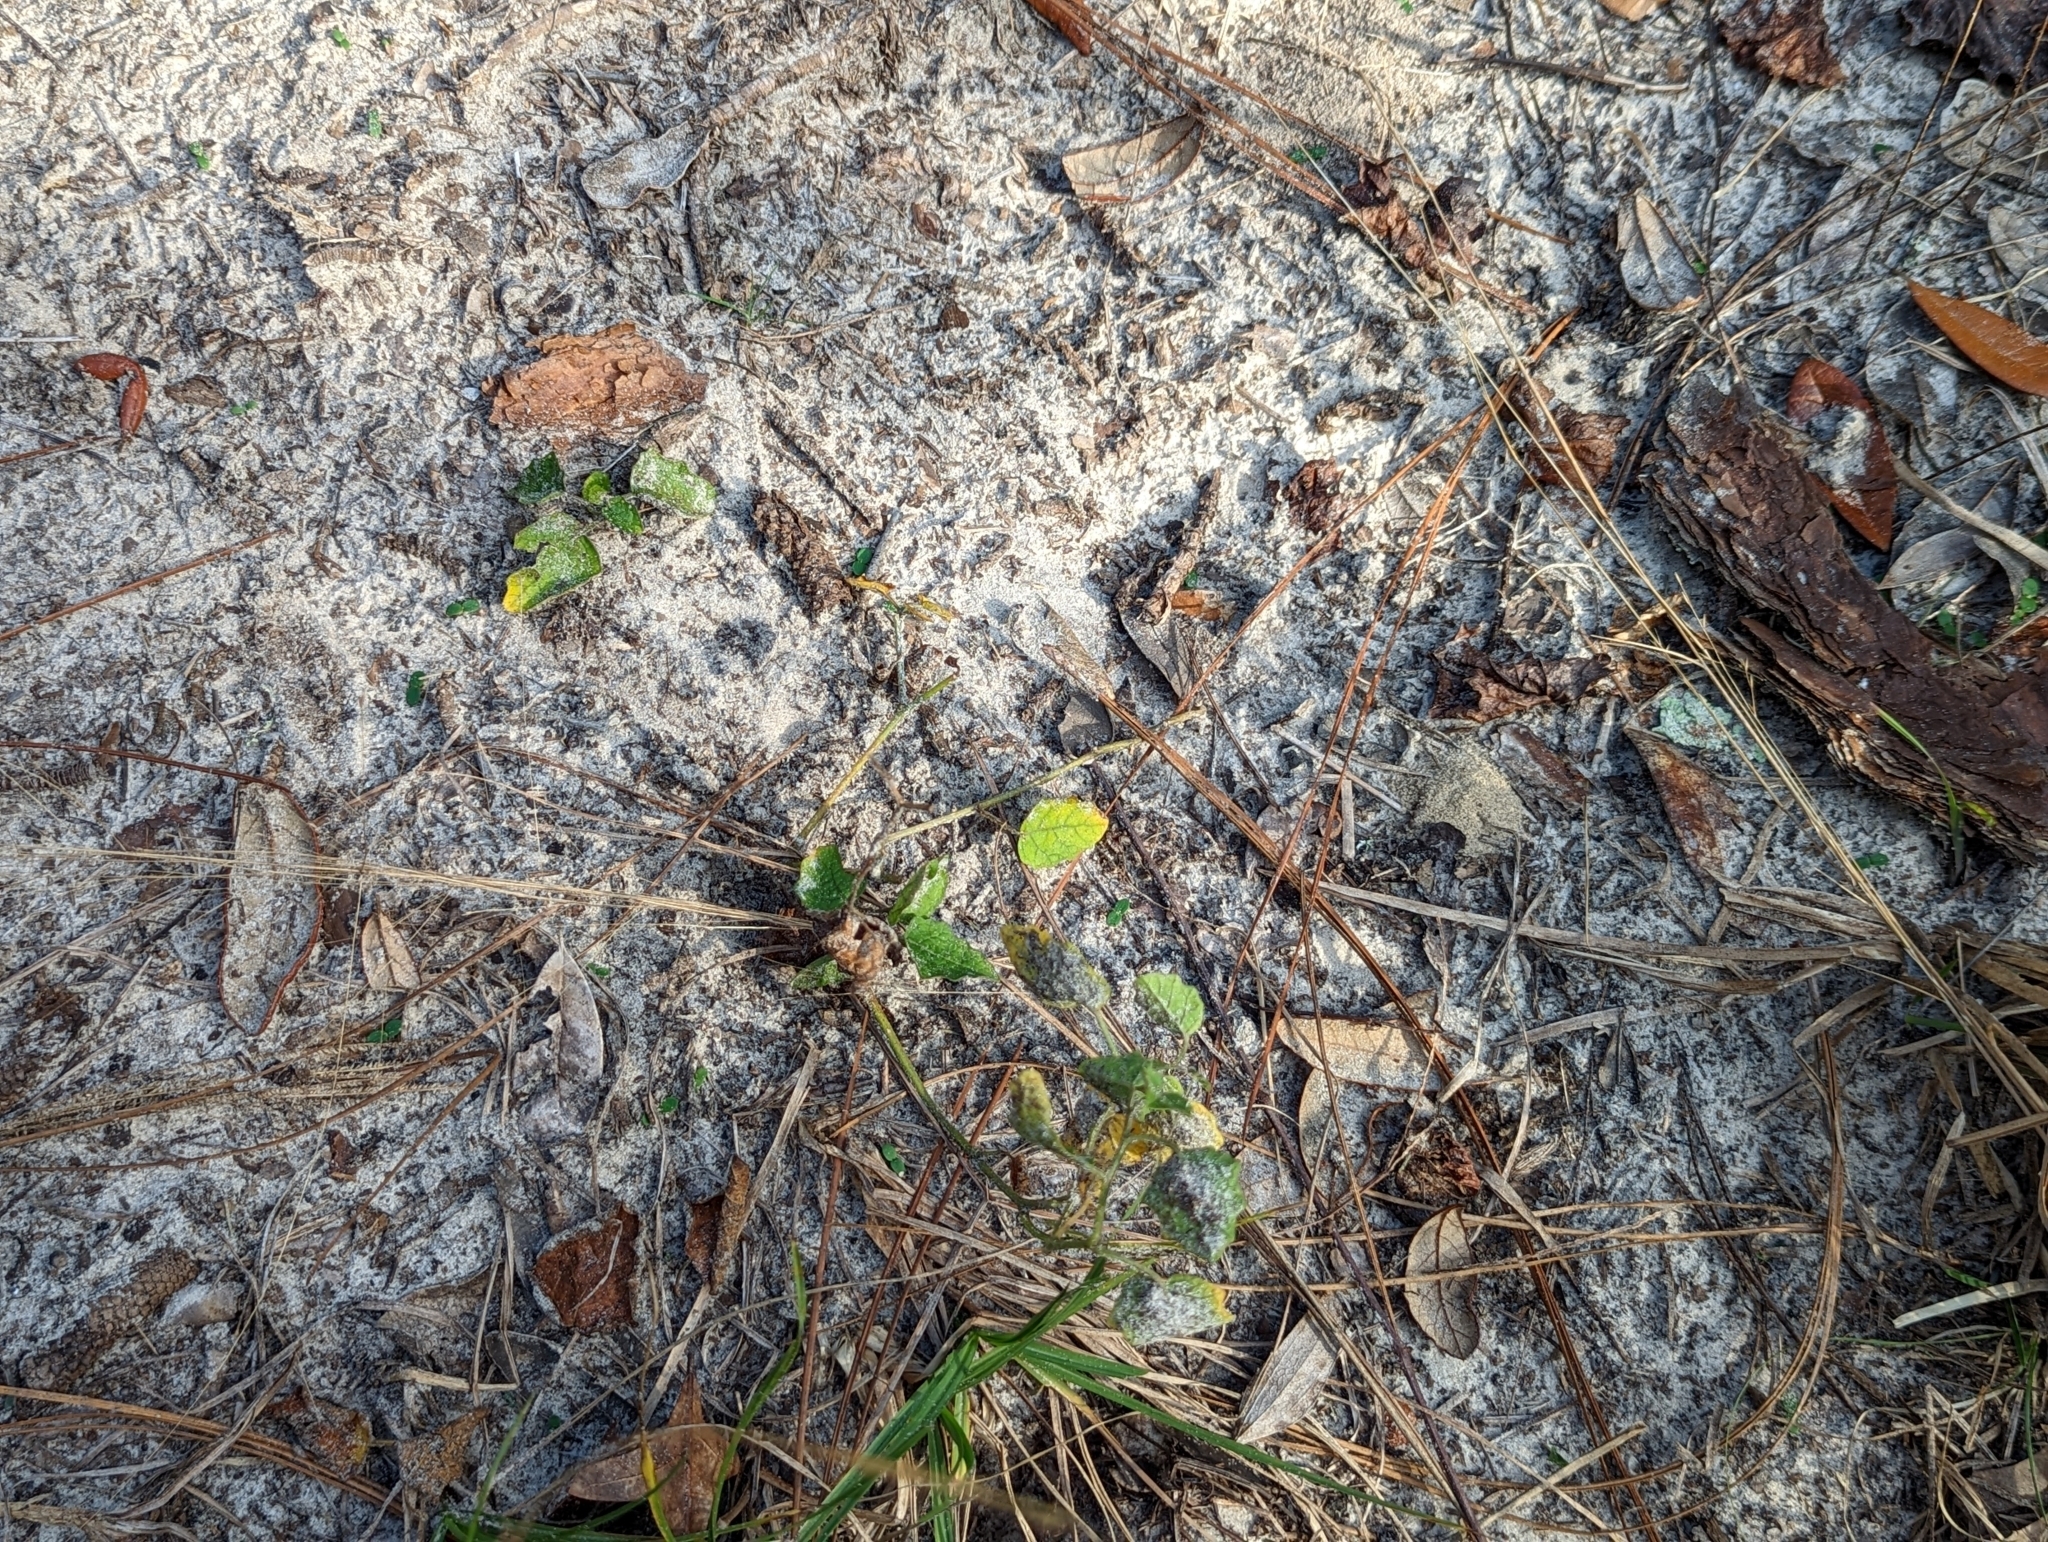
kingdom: Plantae
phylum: Tracheophyta
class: Magnoliopsida
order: Solanales
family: Solanaceae
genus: Physalis
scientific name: Physalis arenicola
